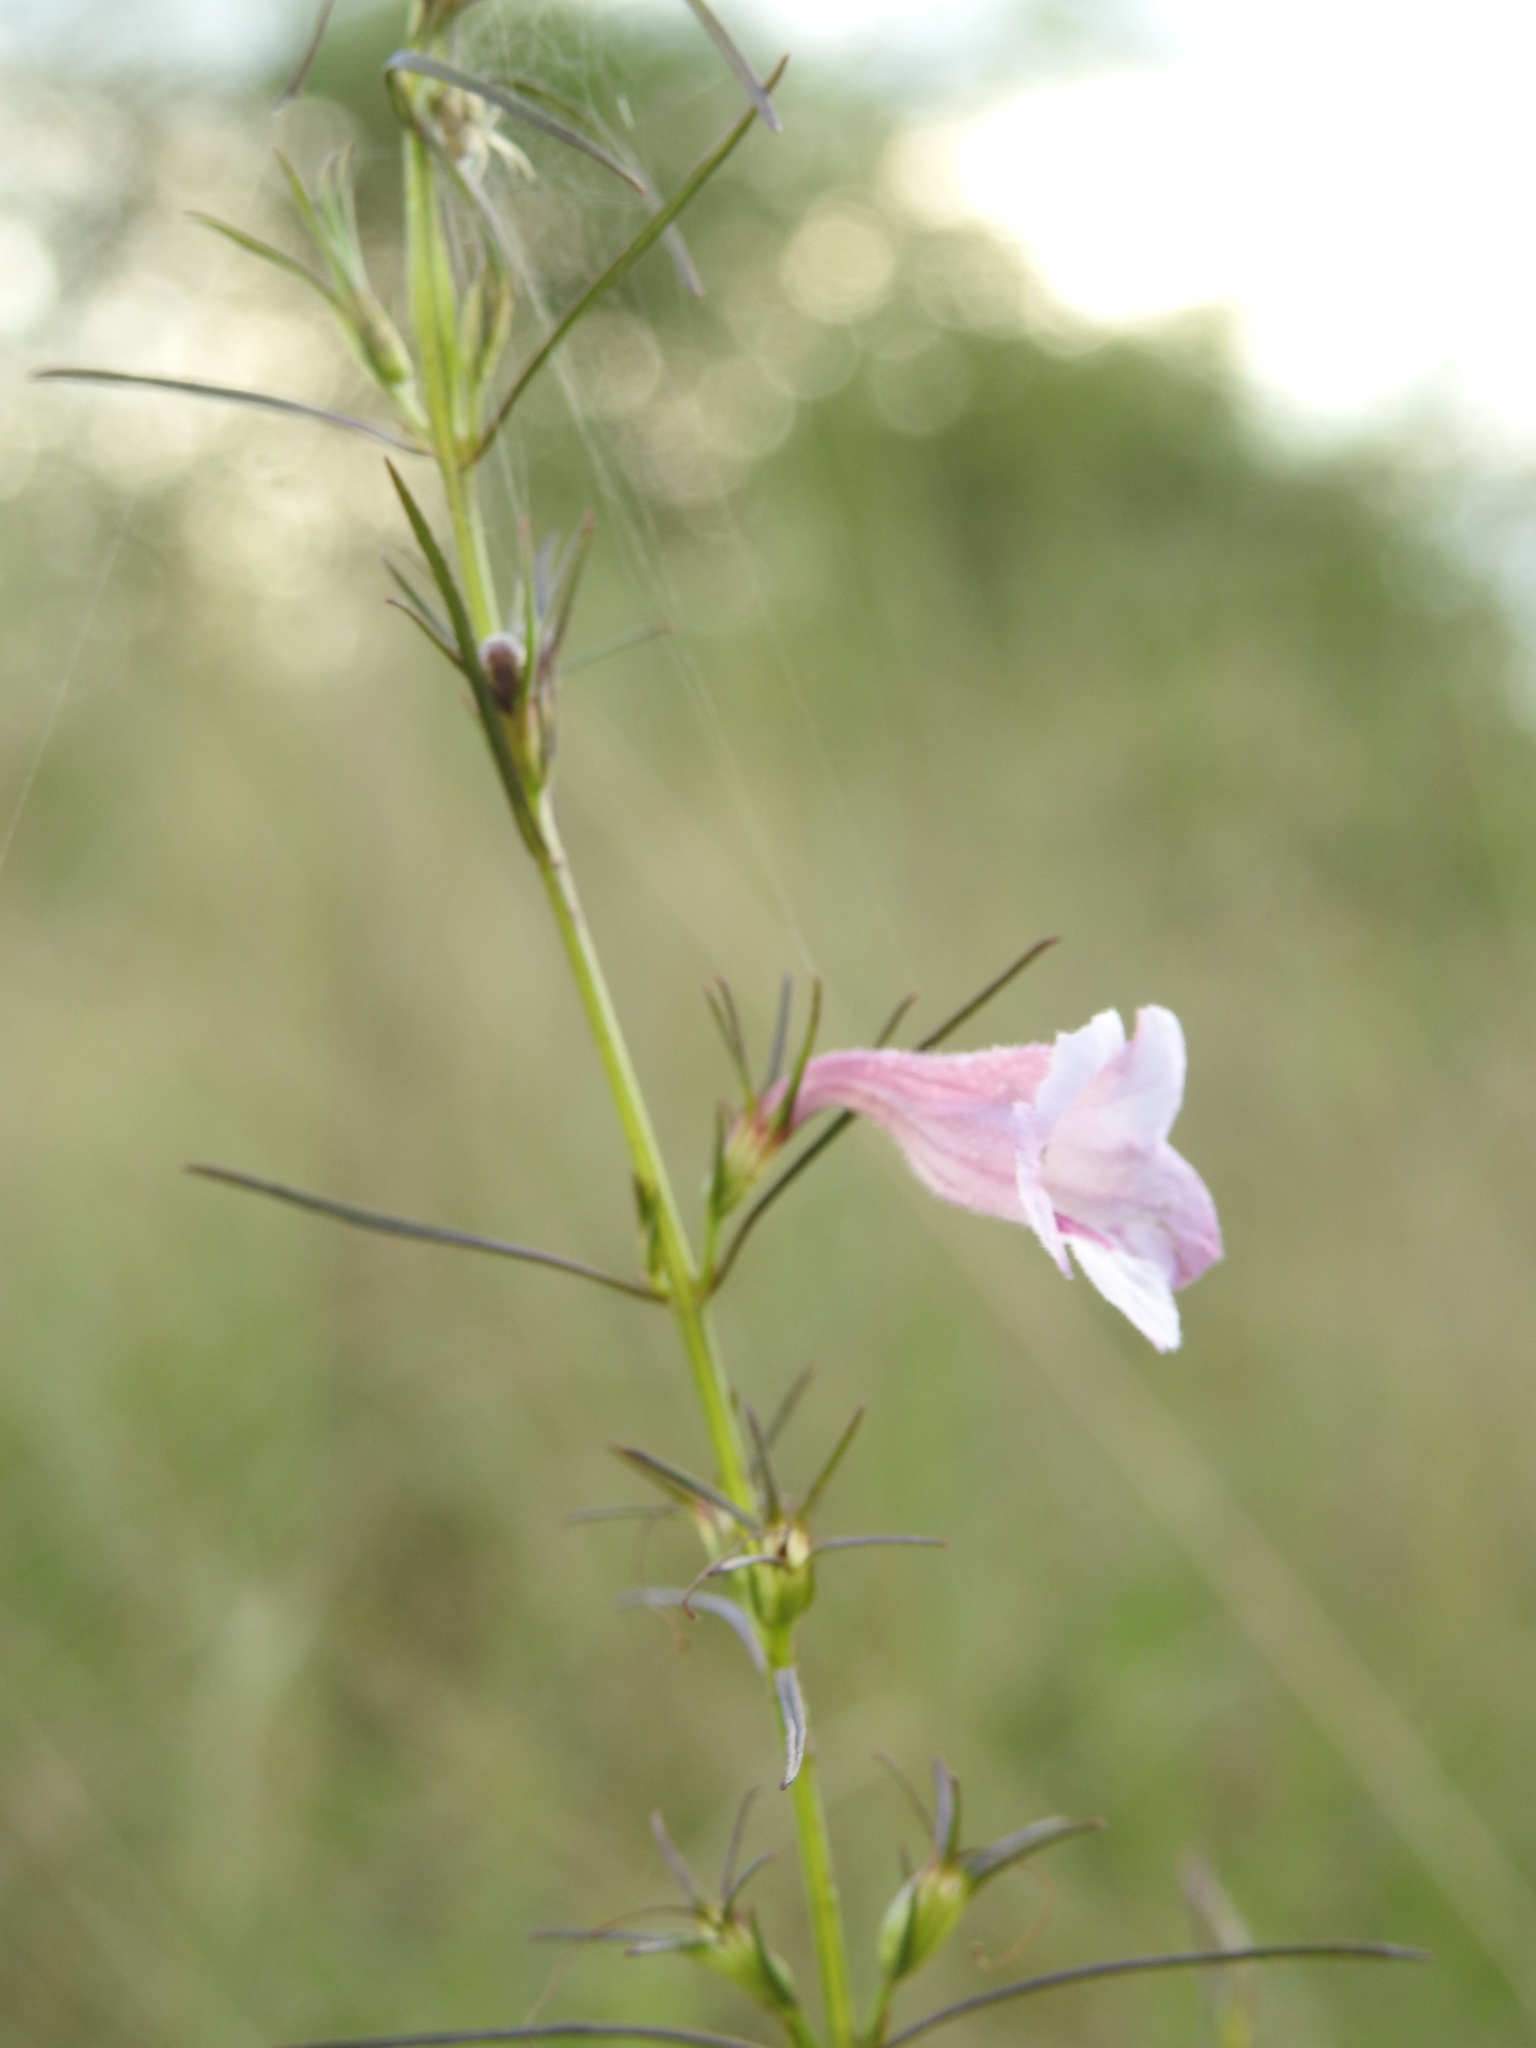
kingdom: Plantae
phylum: Tracheophyta
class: Magnoliopsida
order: Lamiales
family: Orobanchaceae
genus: Parasopubia
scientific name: Parasopubia delphiniifolia
